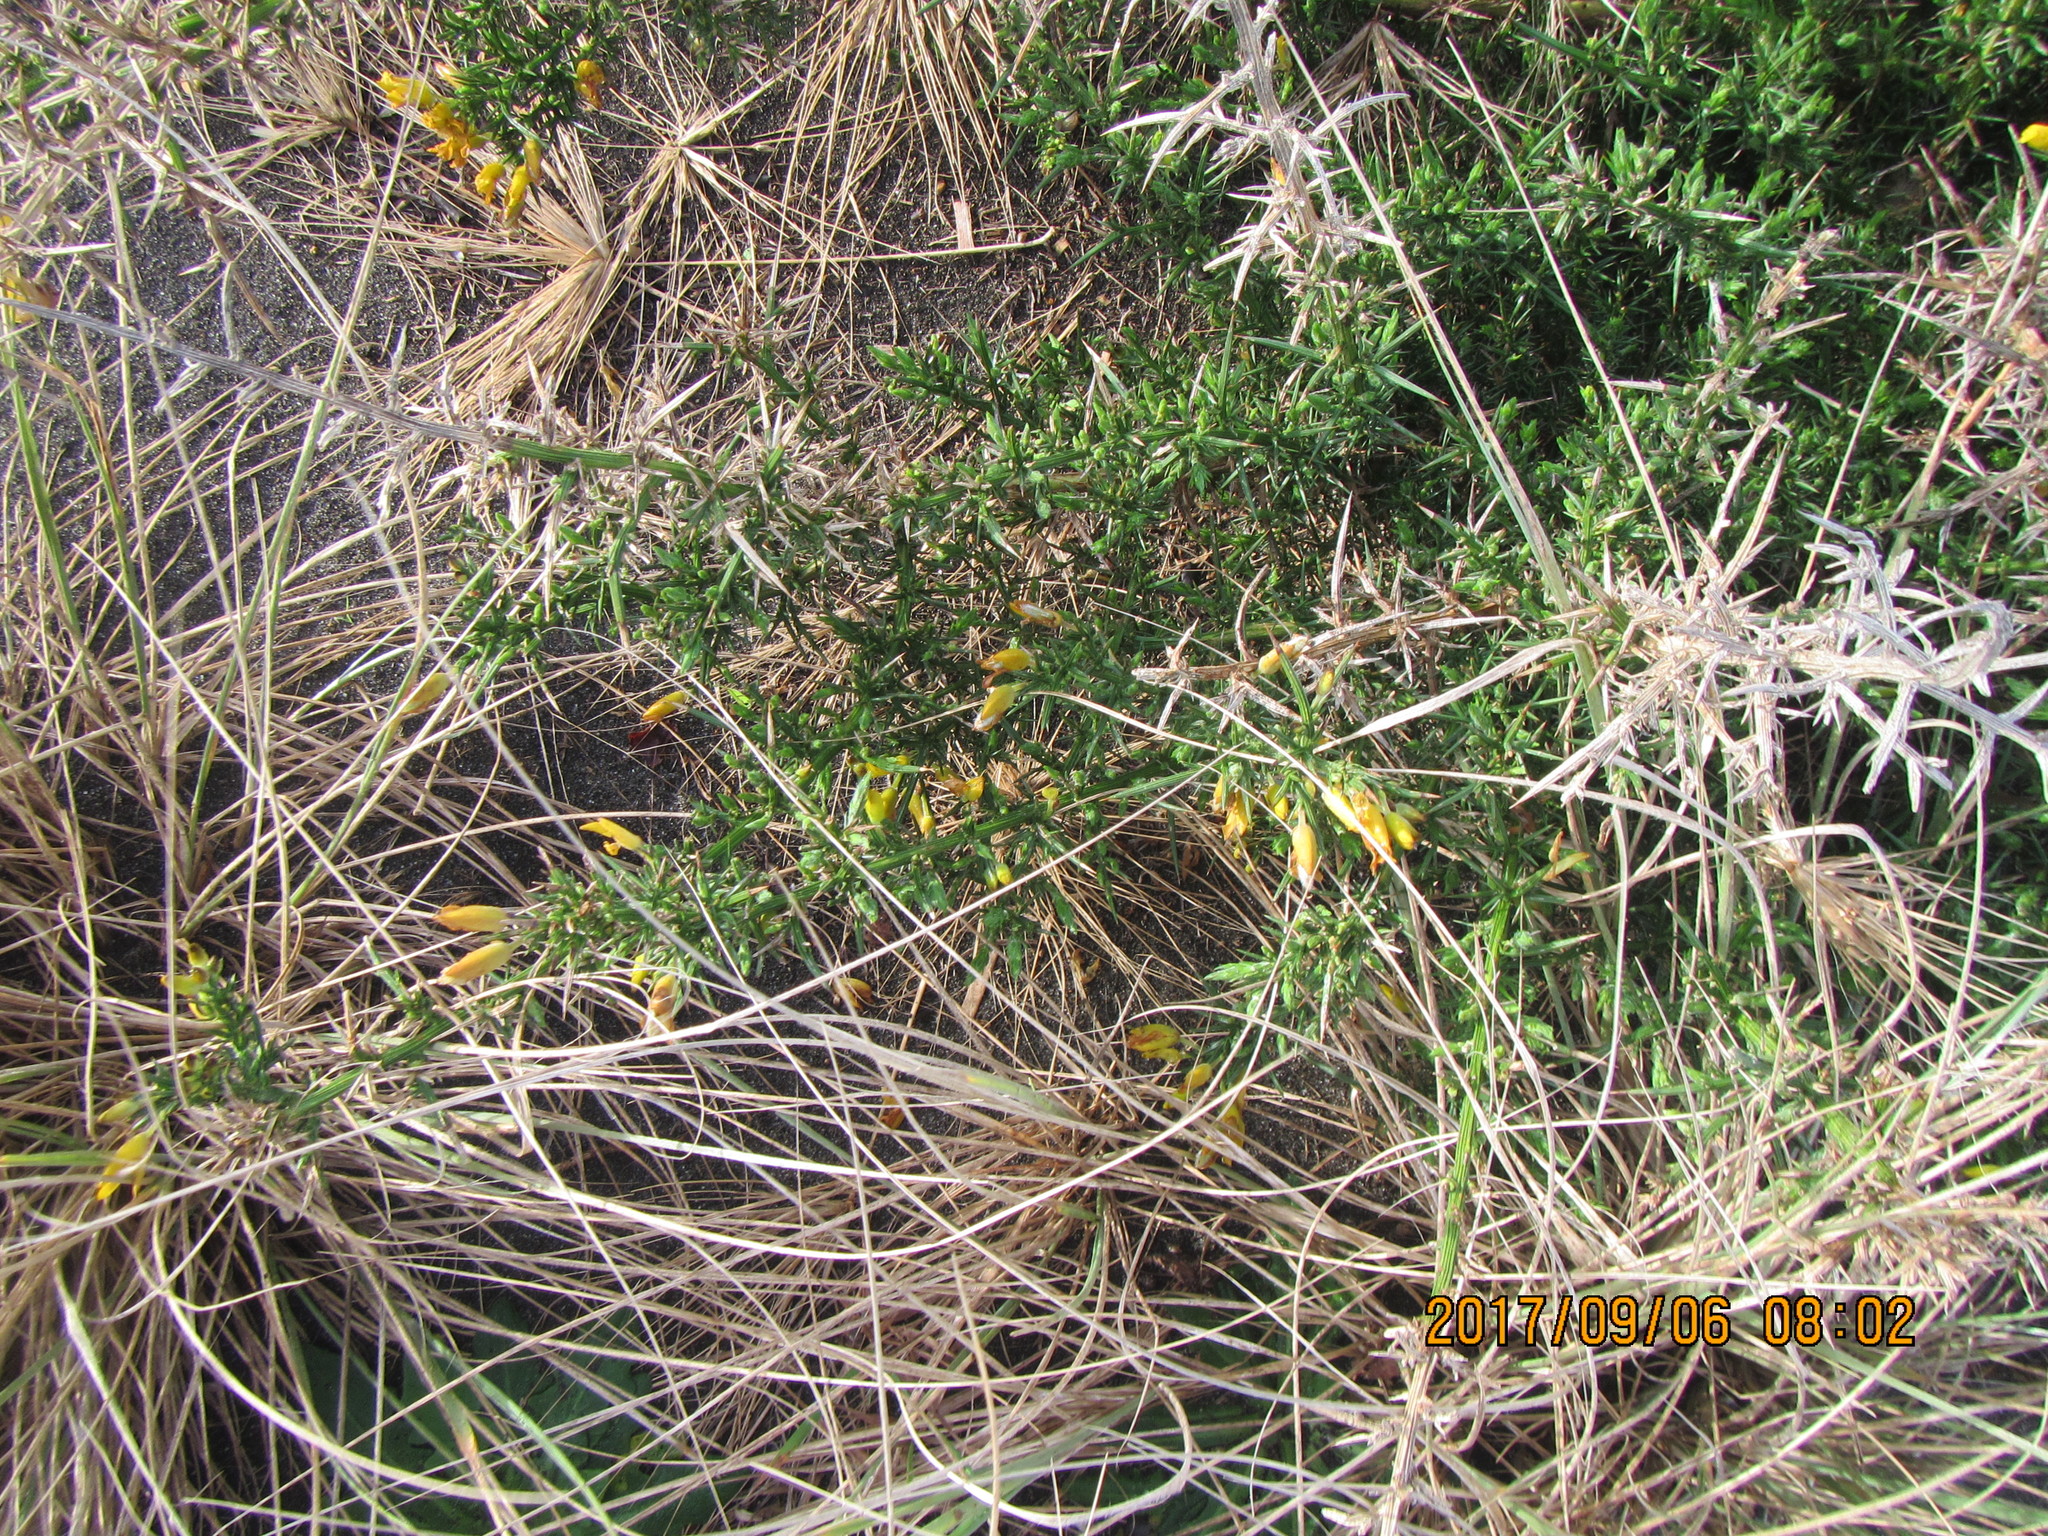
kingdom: Plantae
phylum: Tracheophyta
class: Magnoliopsida
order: Fabales
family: Fabaceae
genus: Ulex
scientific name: Ulex europaeus
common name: Common gorse
